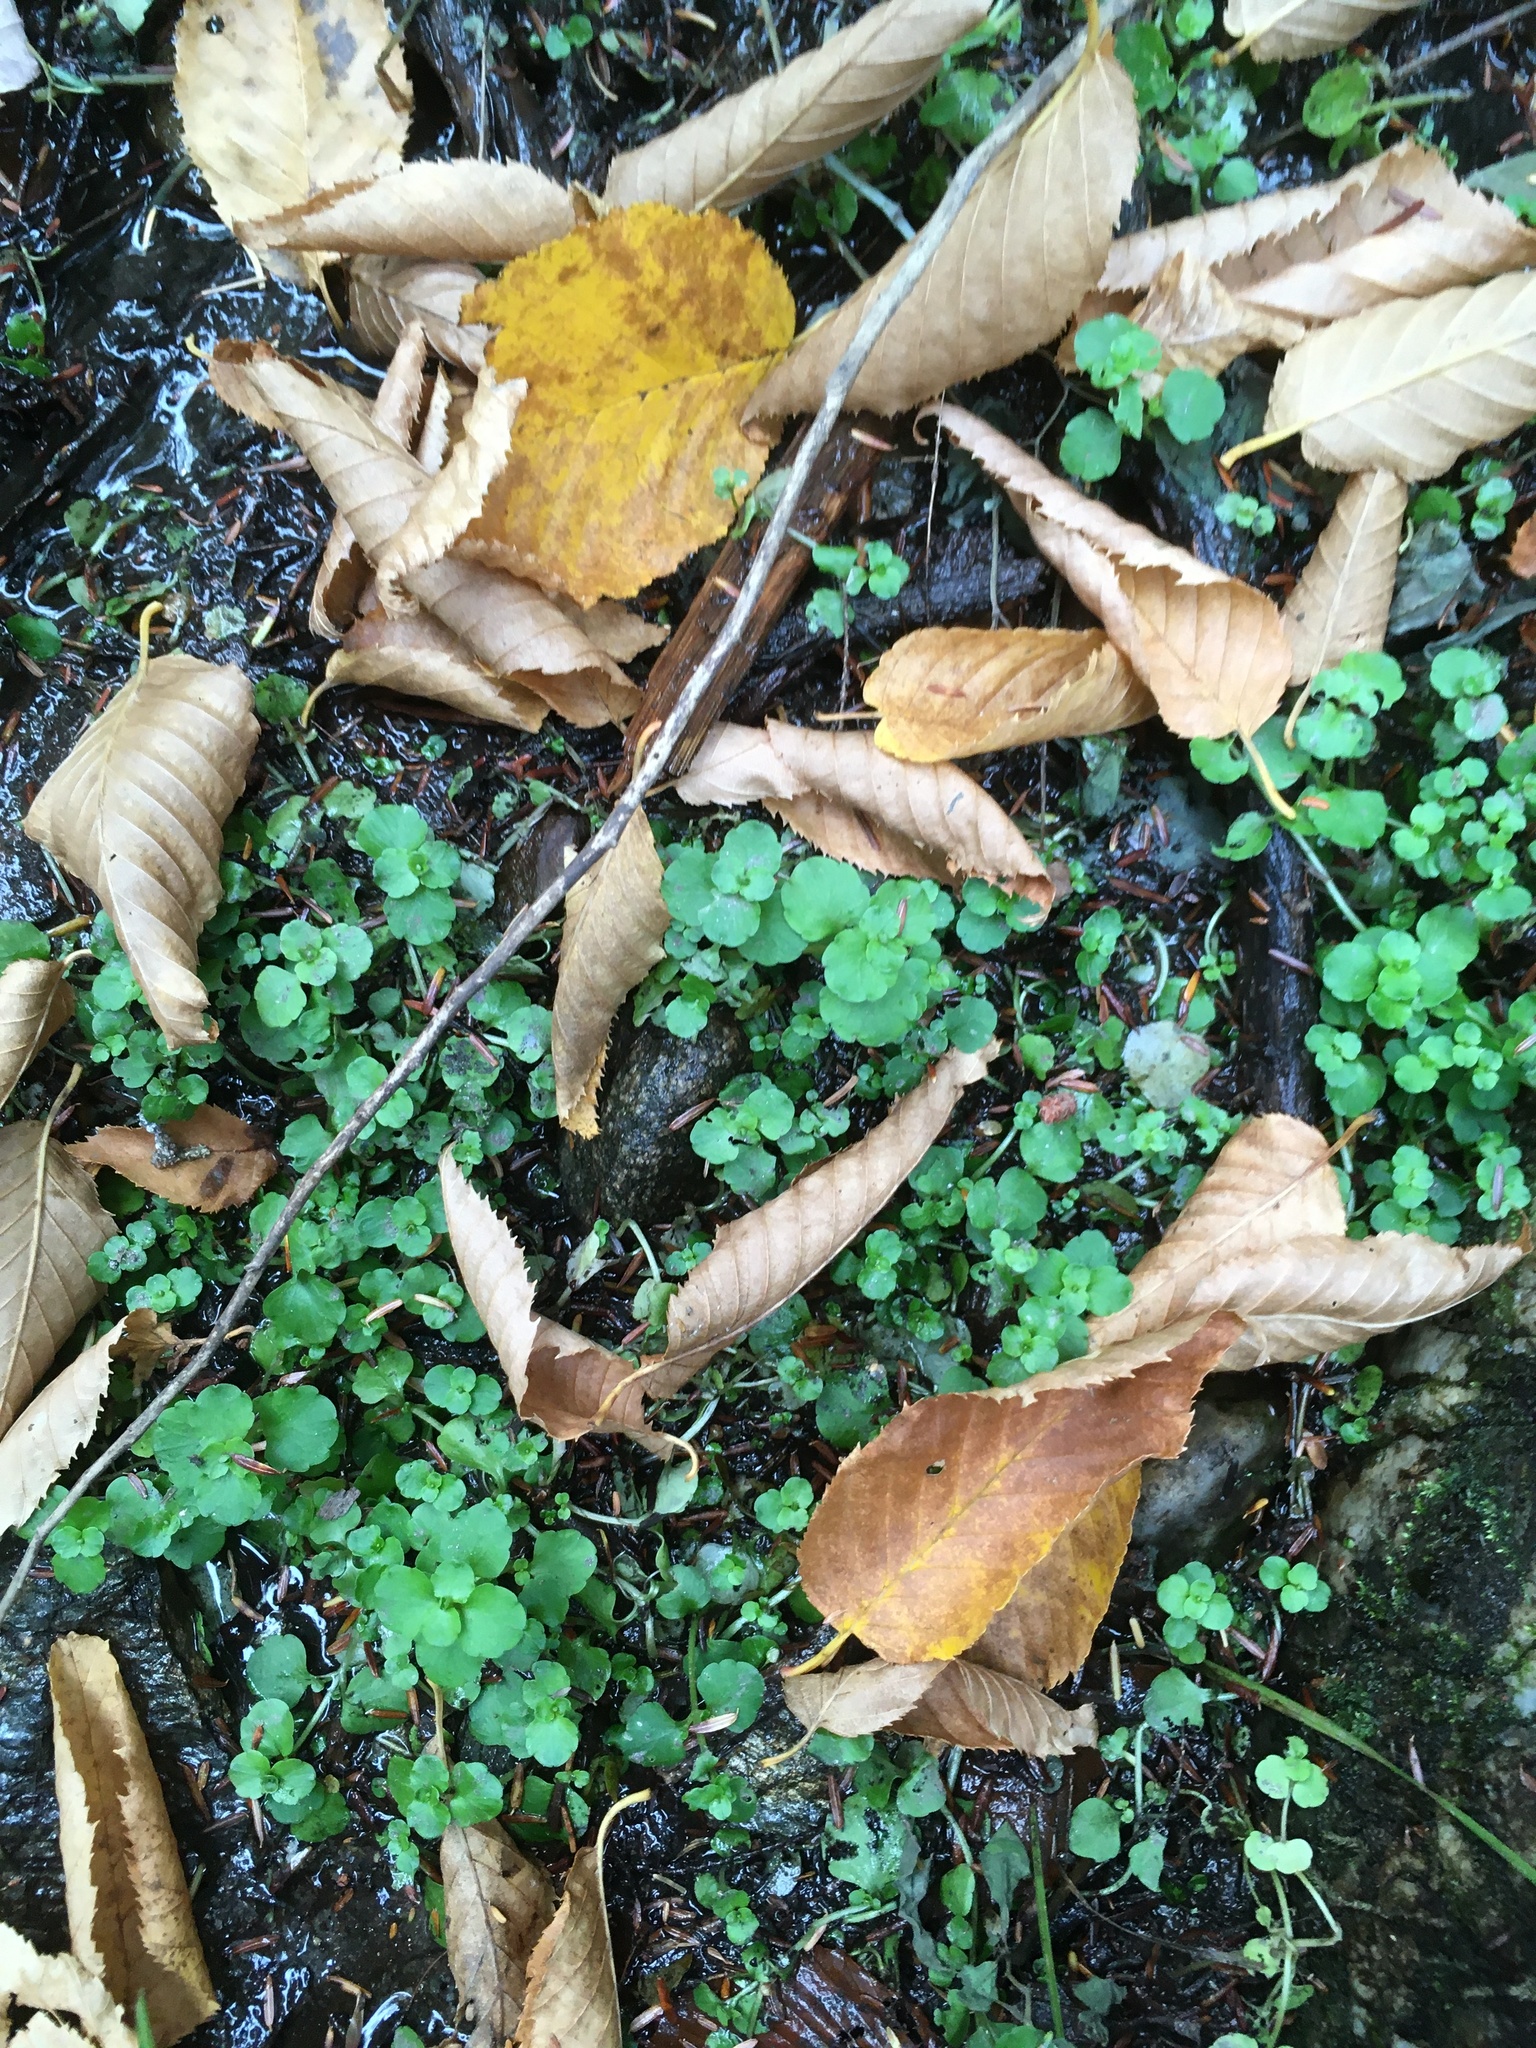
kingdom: Plantae
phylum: Tracheophyta
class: Magnoliopsida
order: Saxifragales
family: Saxifragaceae
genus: Chrysosplenium
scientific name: Chrysosplenium americanum
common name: American golden-saxifrage
